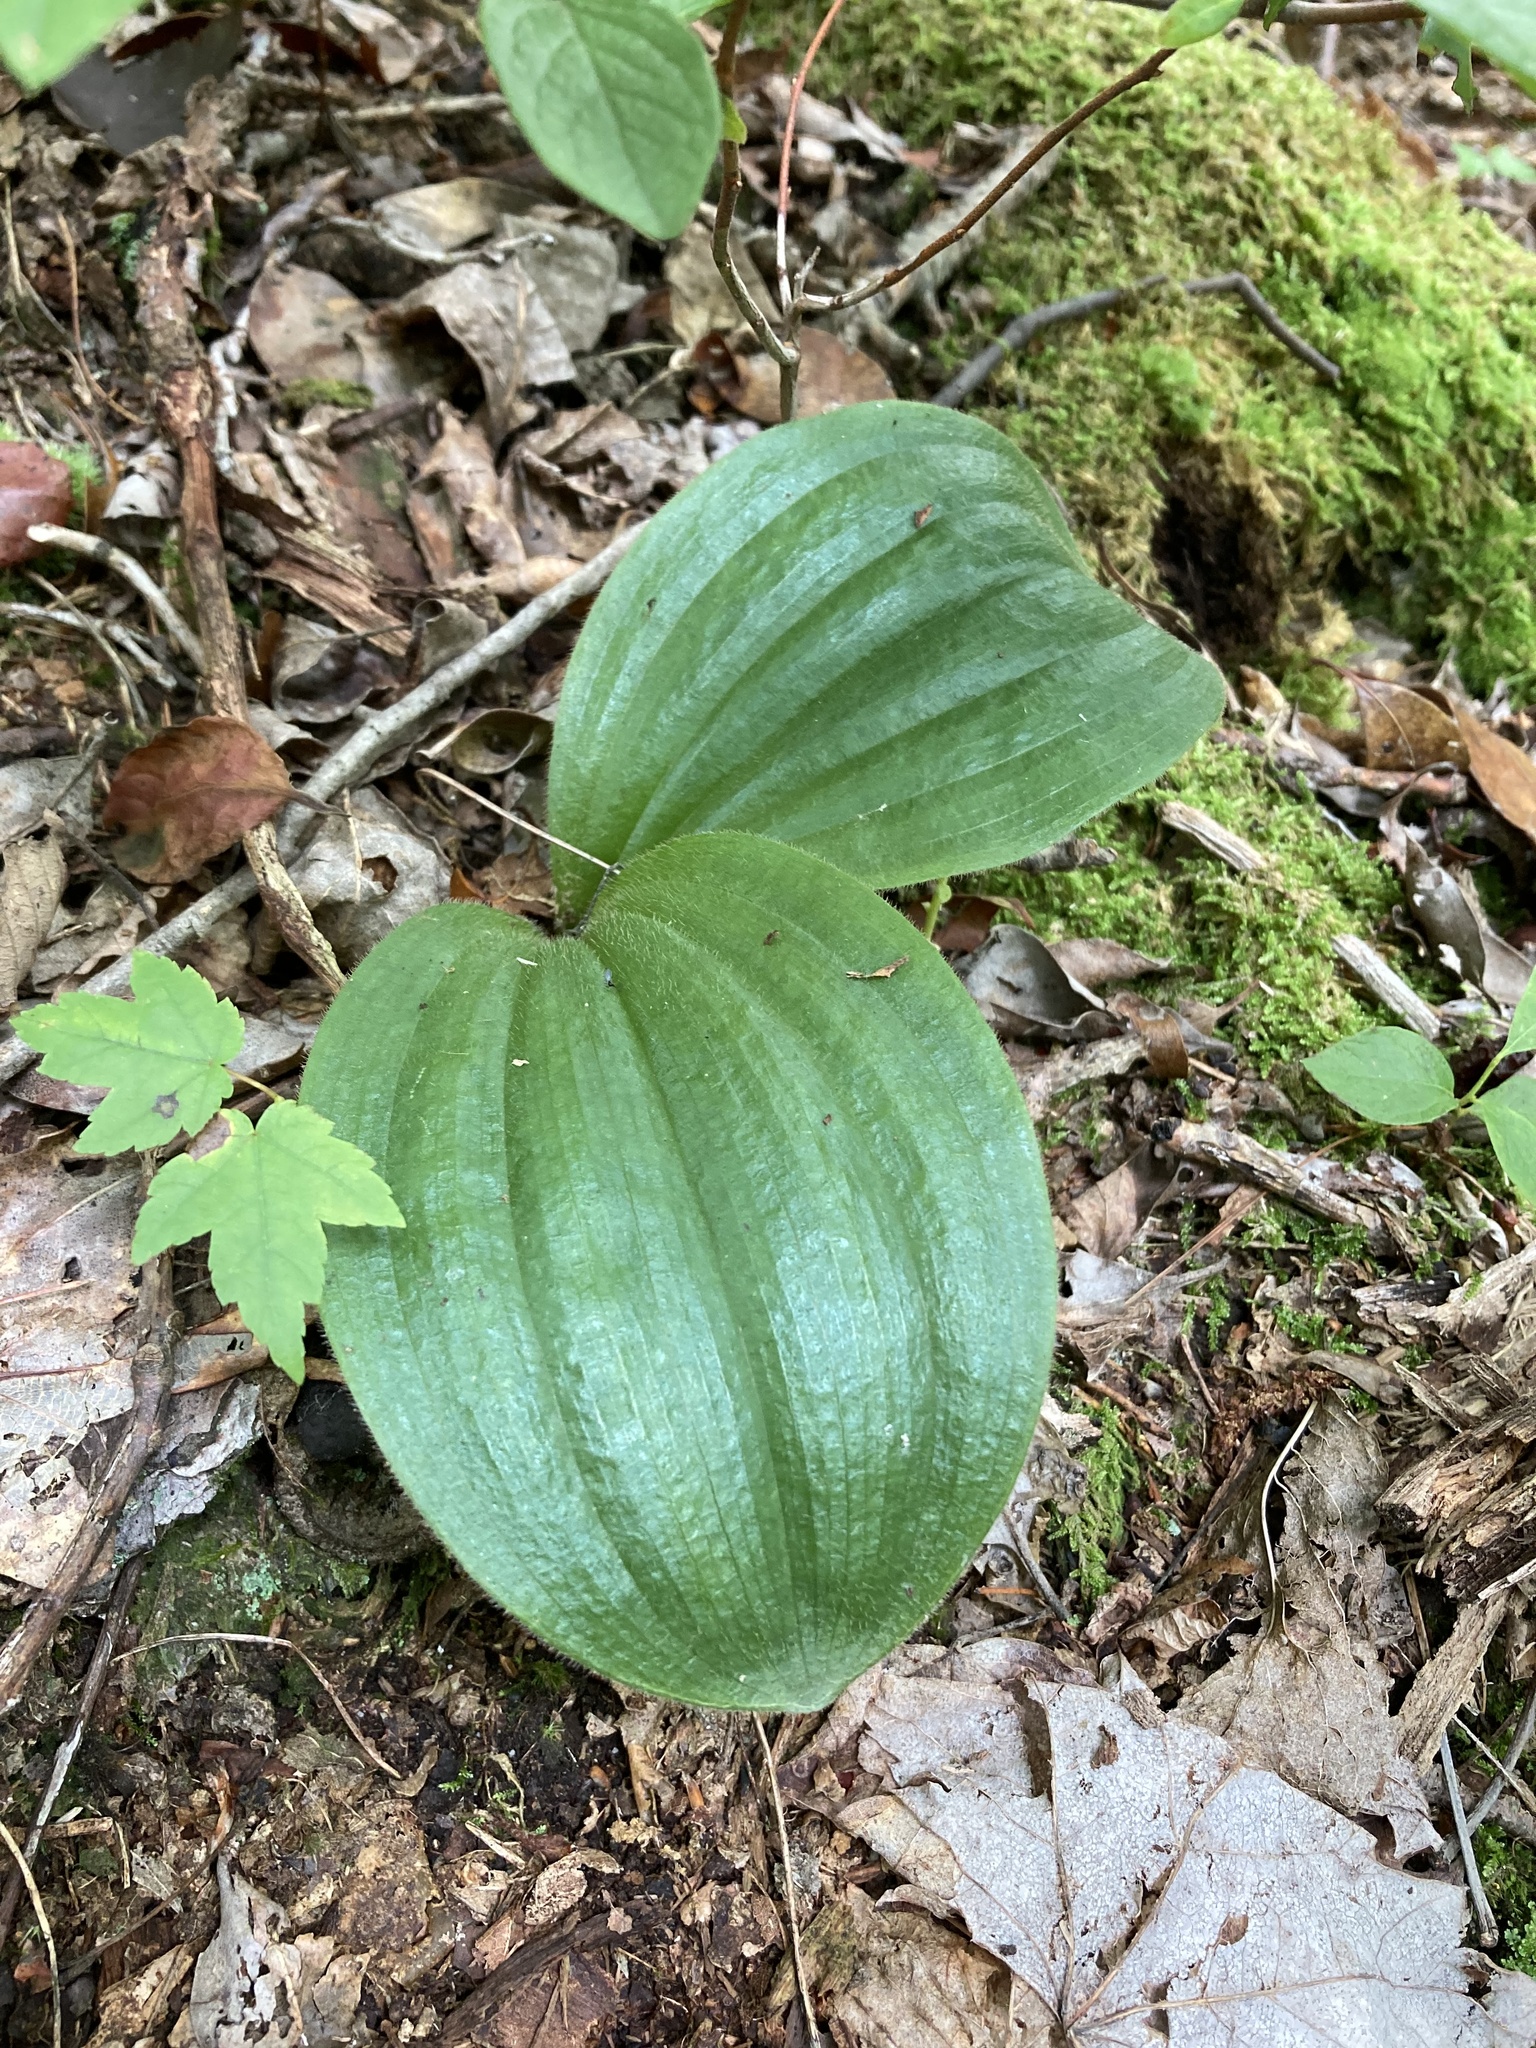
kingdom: Plantae
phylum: Tracheophyta
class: Liliopsida
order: Asparagales
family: Orchidaceae
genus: Cypripedium
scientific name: Cypripedium acaule
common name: Pink lady's-slipper
